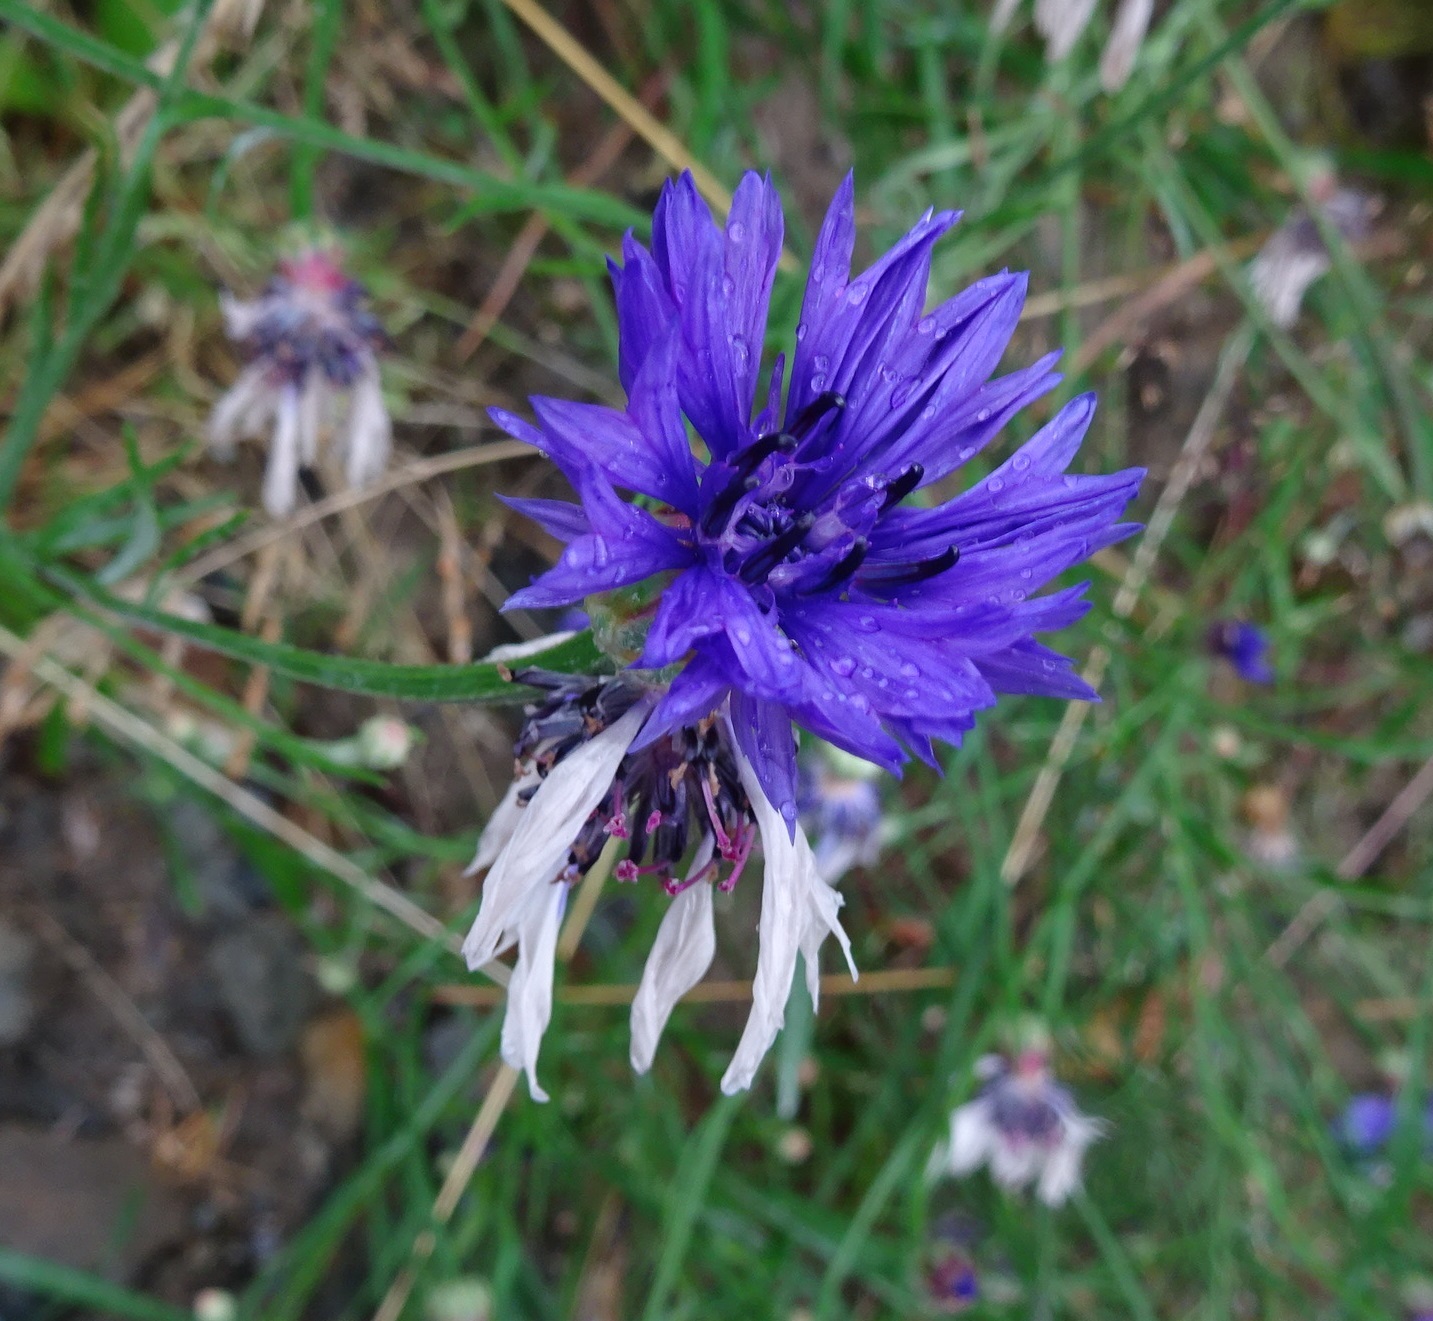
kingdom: Plantae
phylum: Tracheophyta
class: Magnoliopsida
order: Asterales
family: Asteraceae
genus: Centaurea
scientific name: Centaurea cyanus
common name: Cornflower
